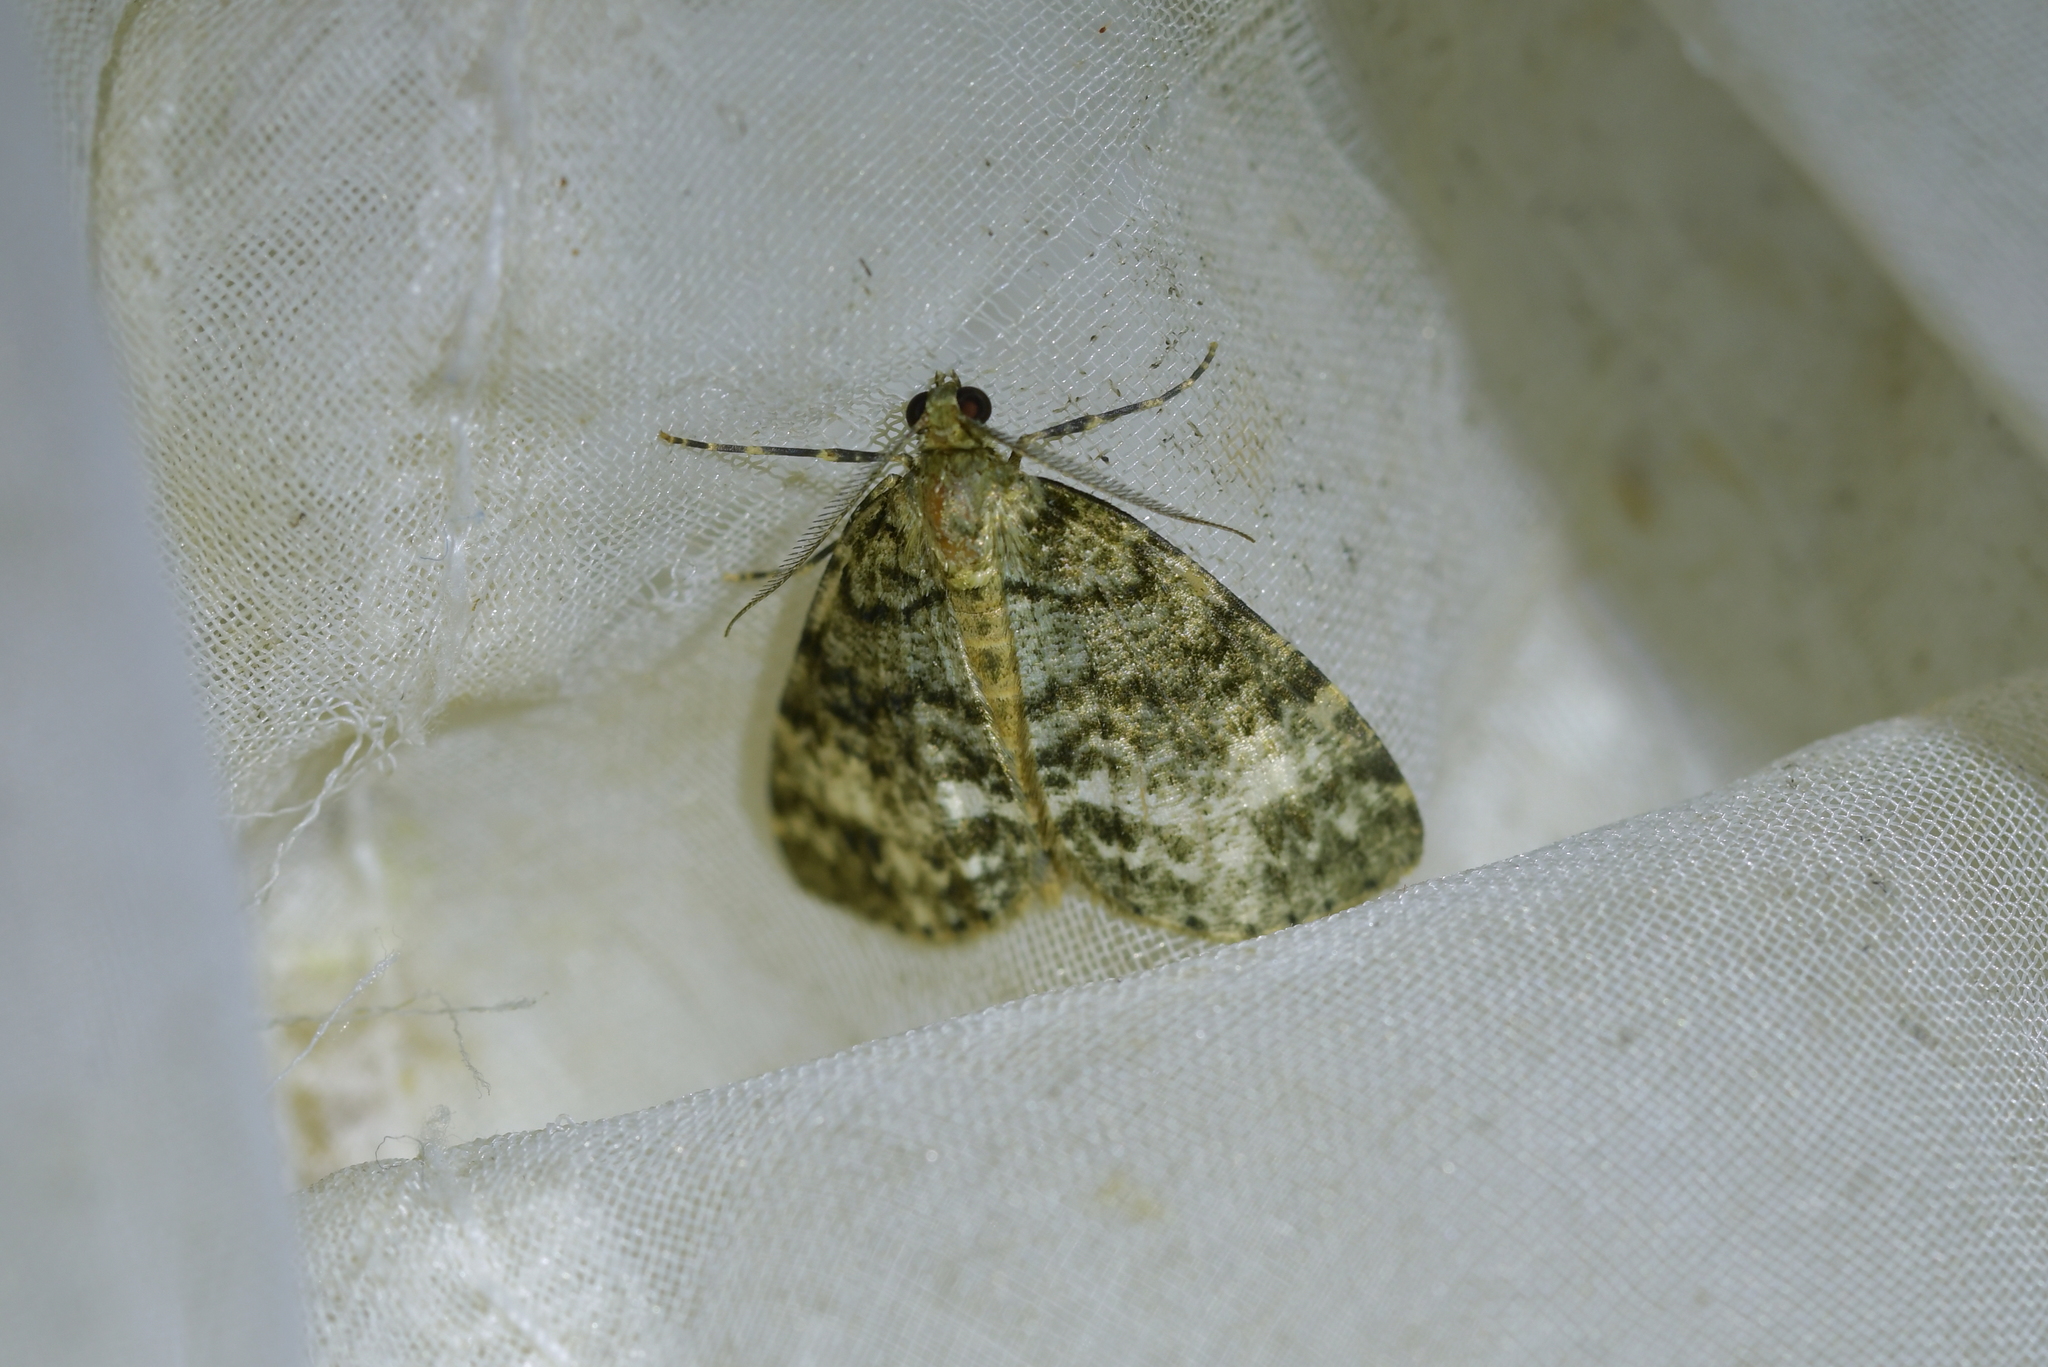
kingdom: Animalia
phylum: Arthropoda
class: Insecta
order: Lepidoptera
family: Geometridae
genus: Pseudocoremia
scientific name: Pseudocoremia indistincta
